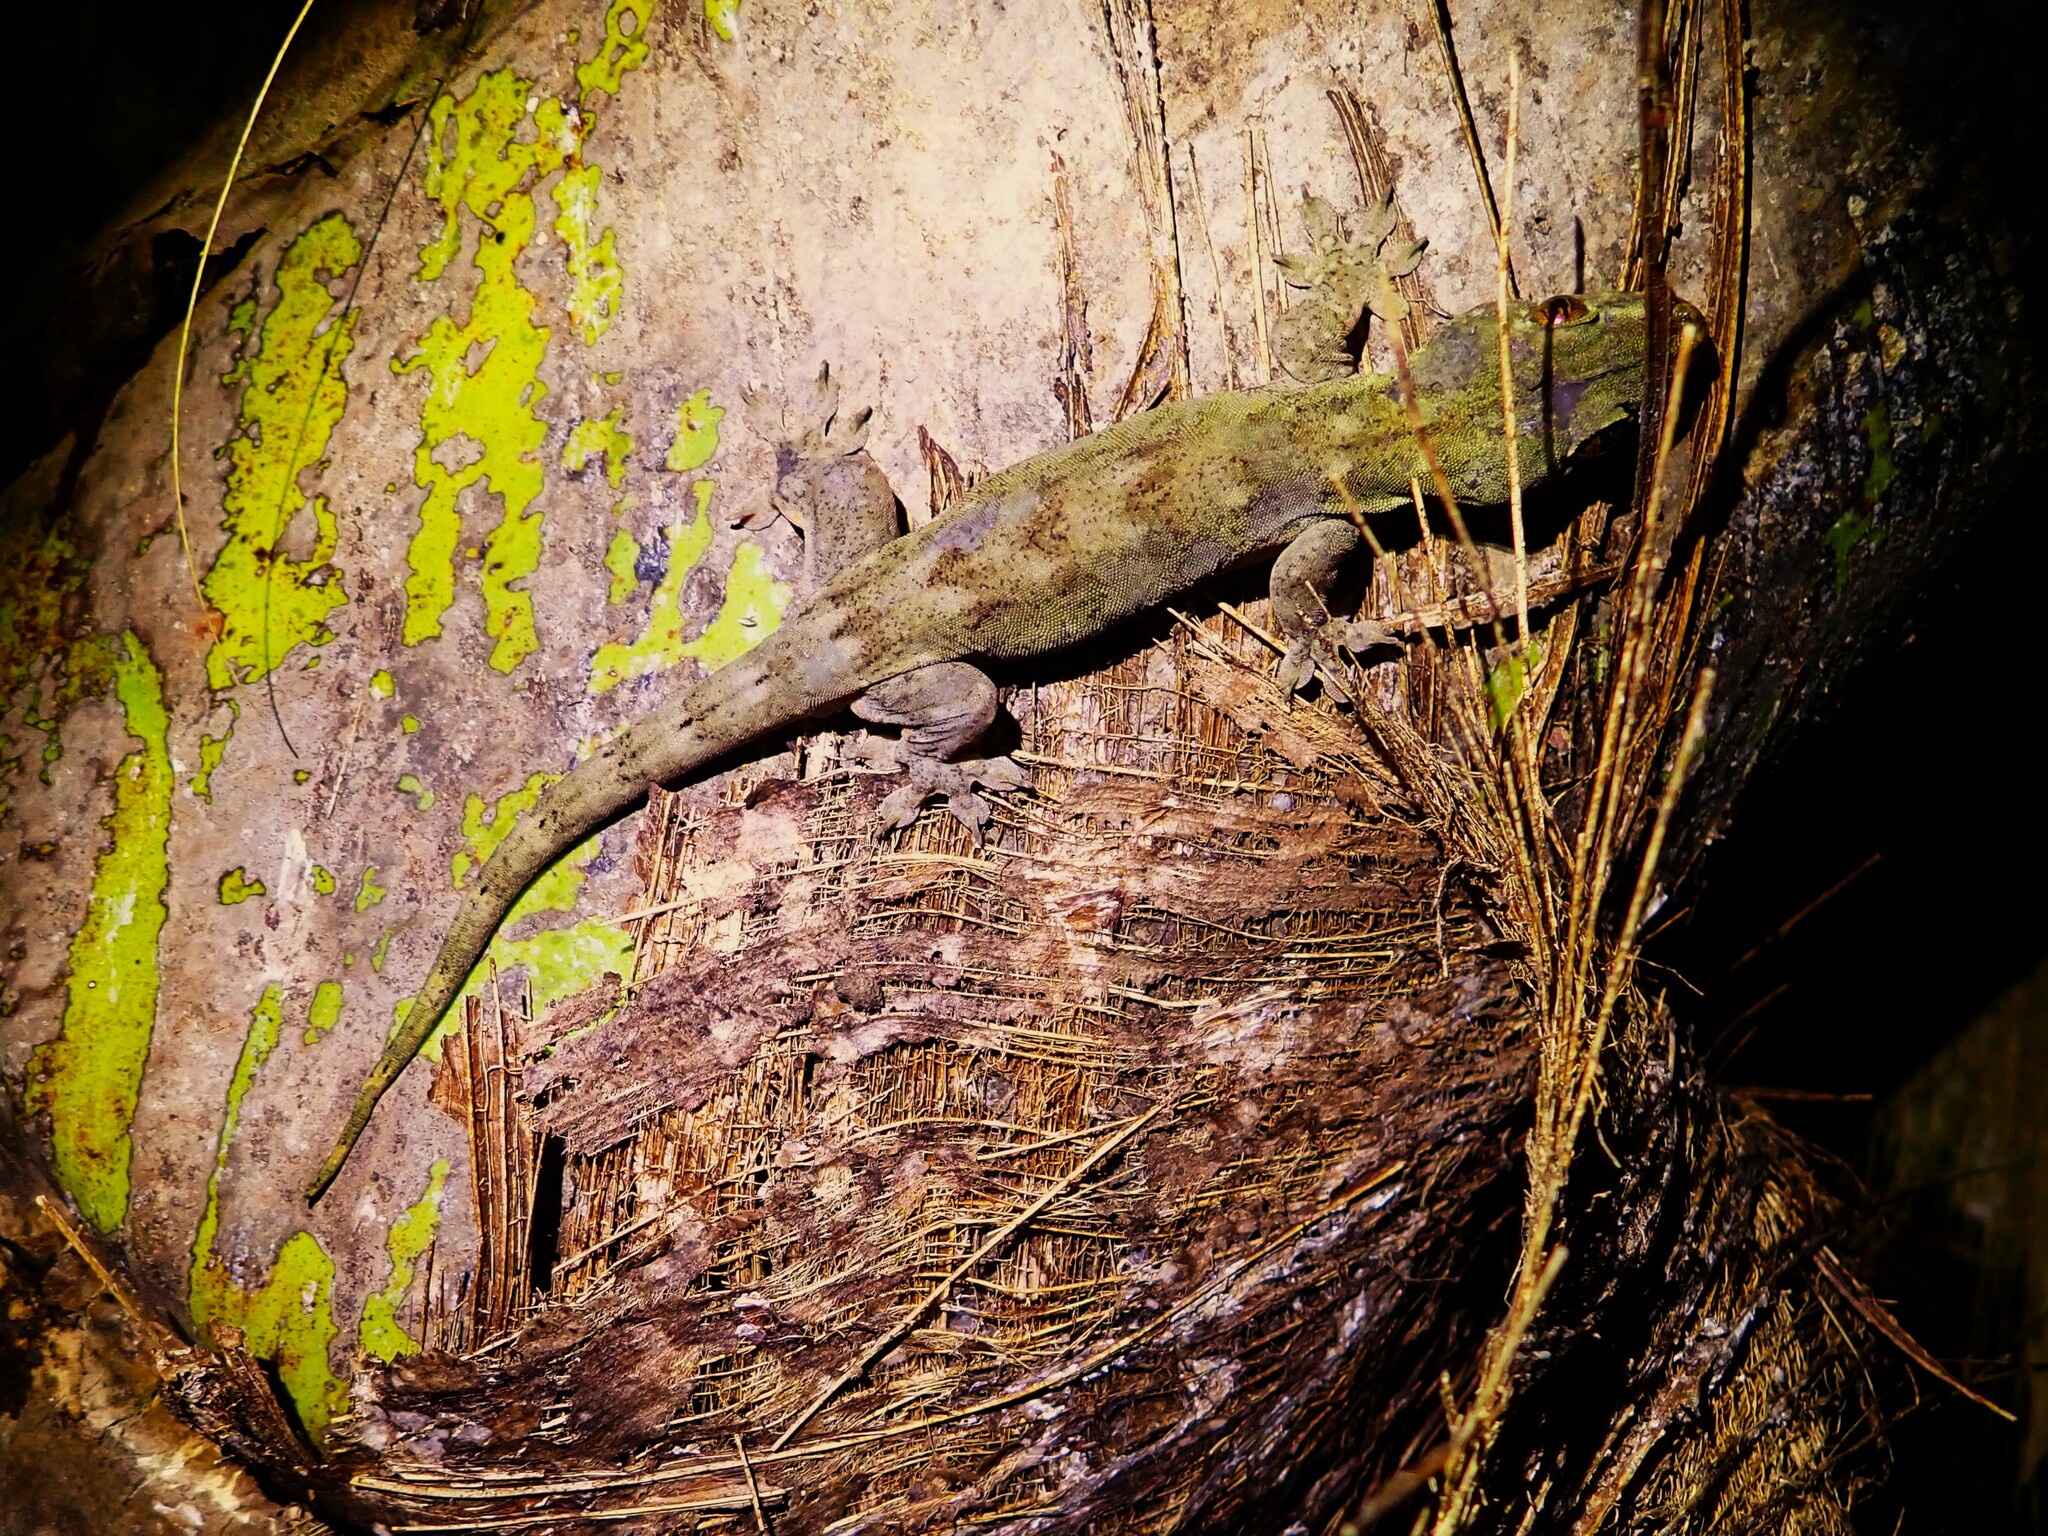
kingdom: Animalia
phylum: Chordata
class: Squamata
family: Gekkonidae
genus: Gehyra
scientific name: Gehyra oceanica
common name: Pacific dtella
